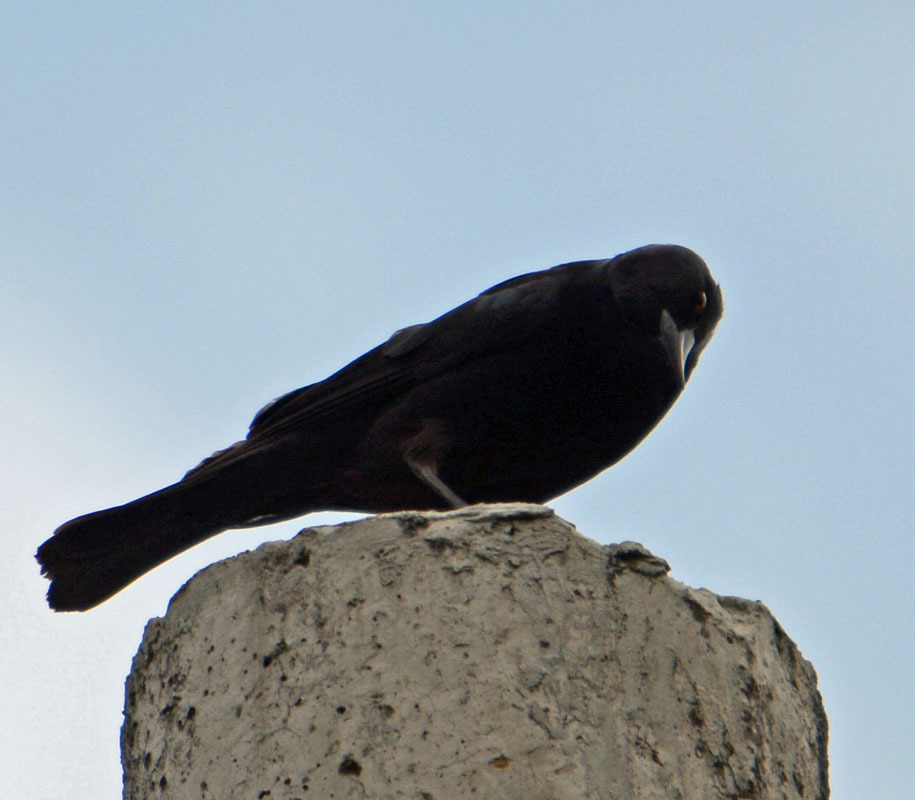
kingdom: Animalia
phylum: Chordata
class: Aves
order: Passeriformes
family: Icteridae
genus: Molothrus
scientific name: Molothrus aeneus
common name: Bronzed cowbird
